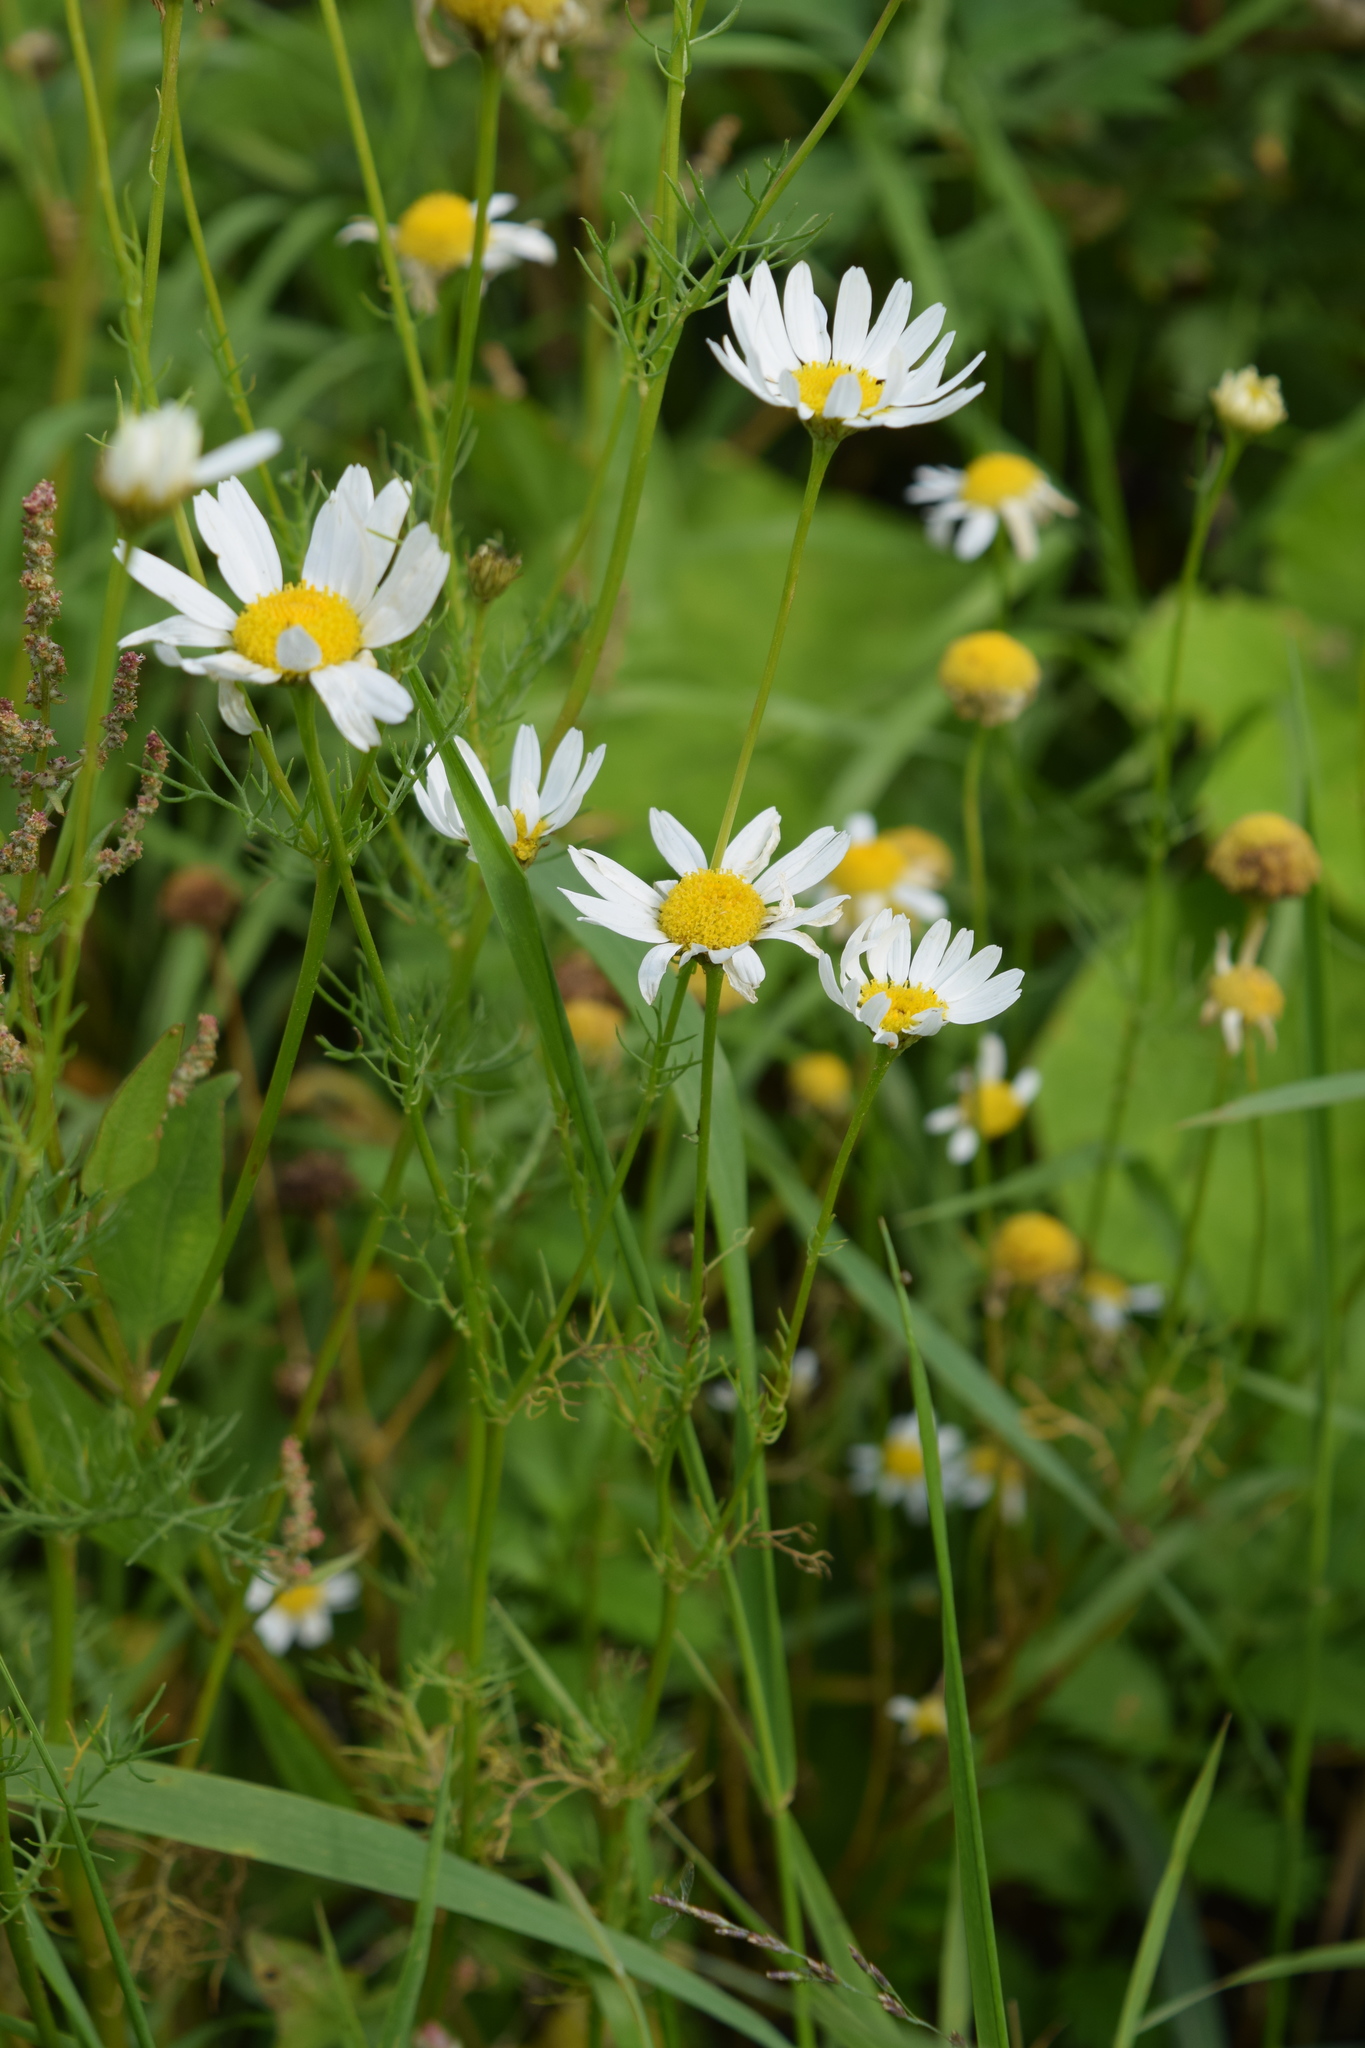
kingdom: Plantae
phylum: Tracheophyta
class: Magnoliopsida
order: Asterales
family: Asteraceae
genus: Tripleurospermum
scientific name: Tripleurospermum inodorum
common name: Scentless mayweed
